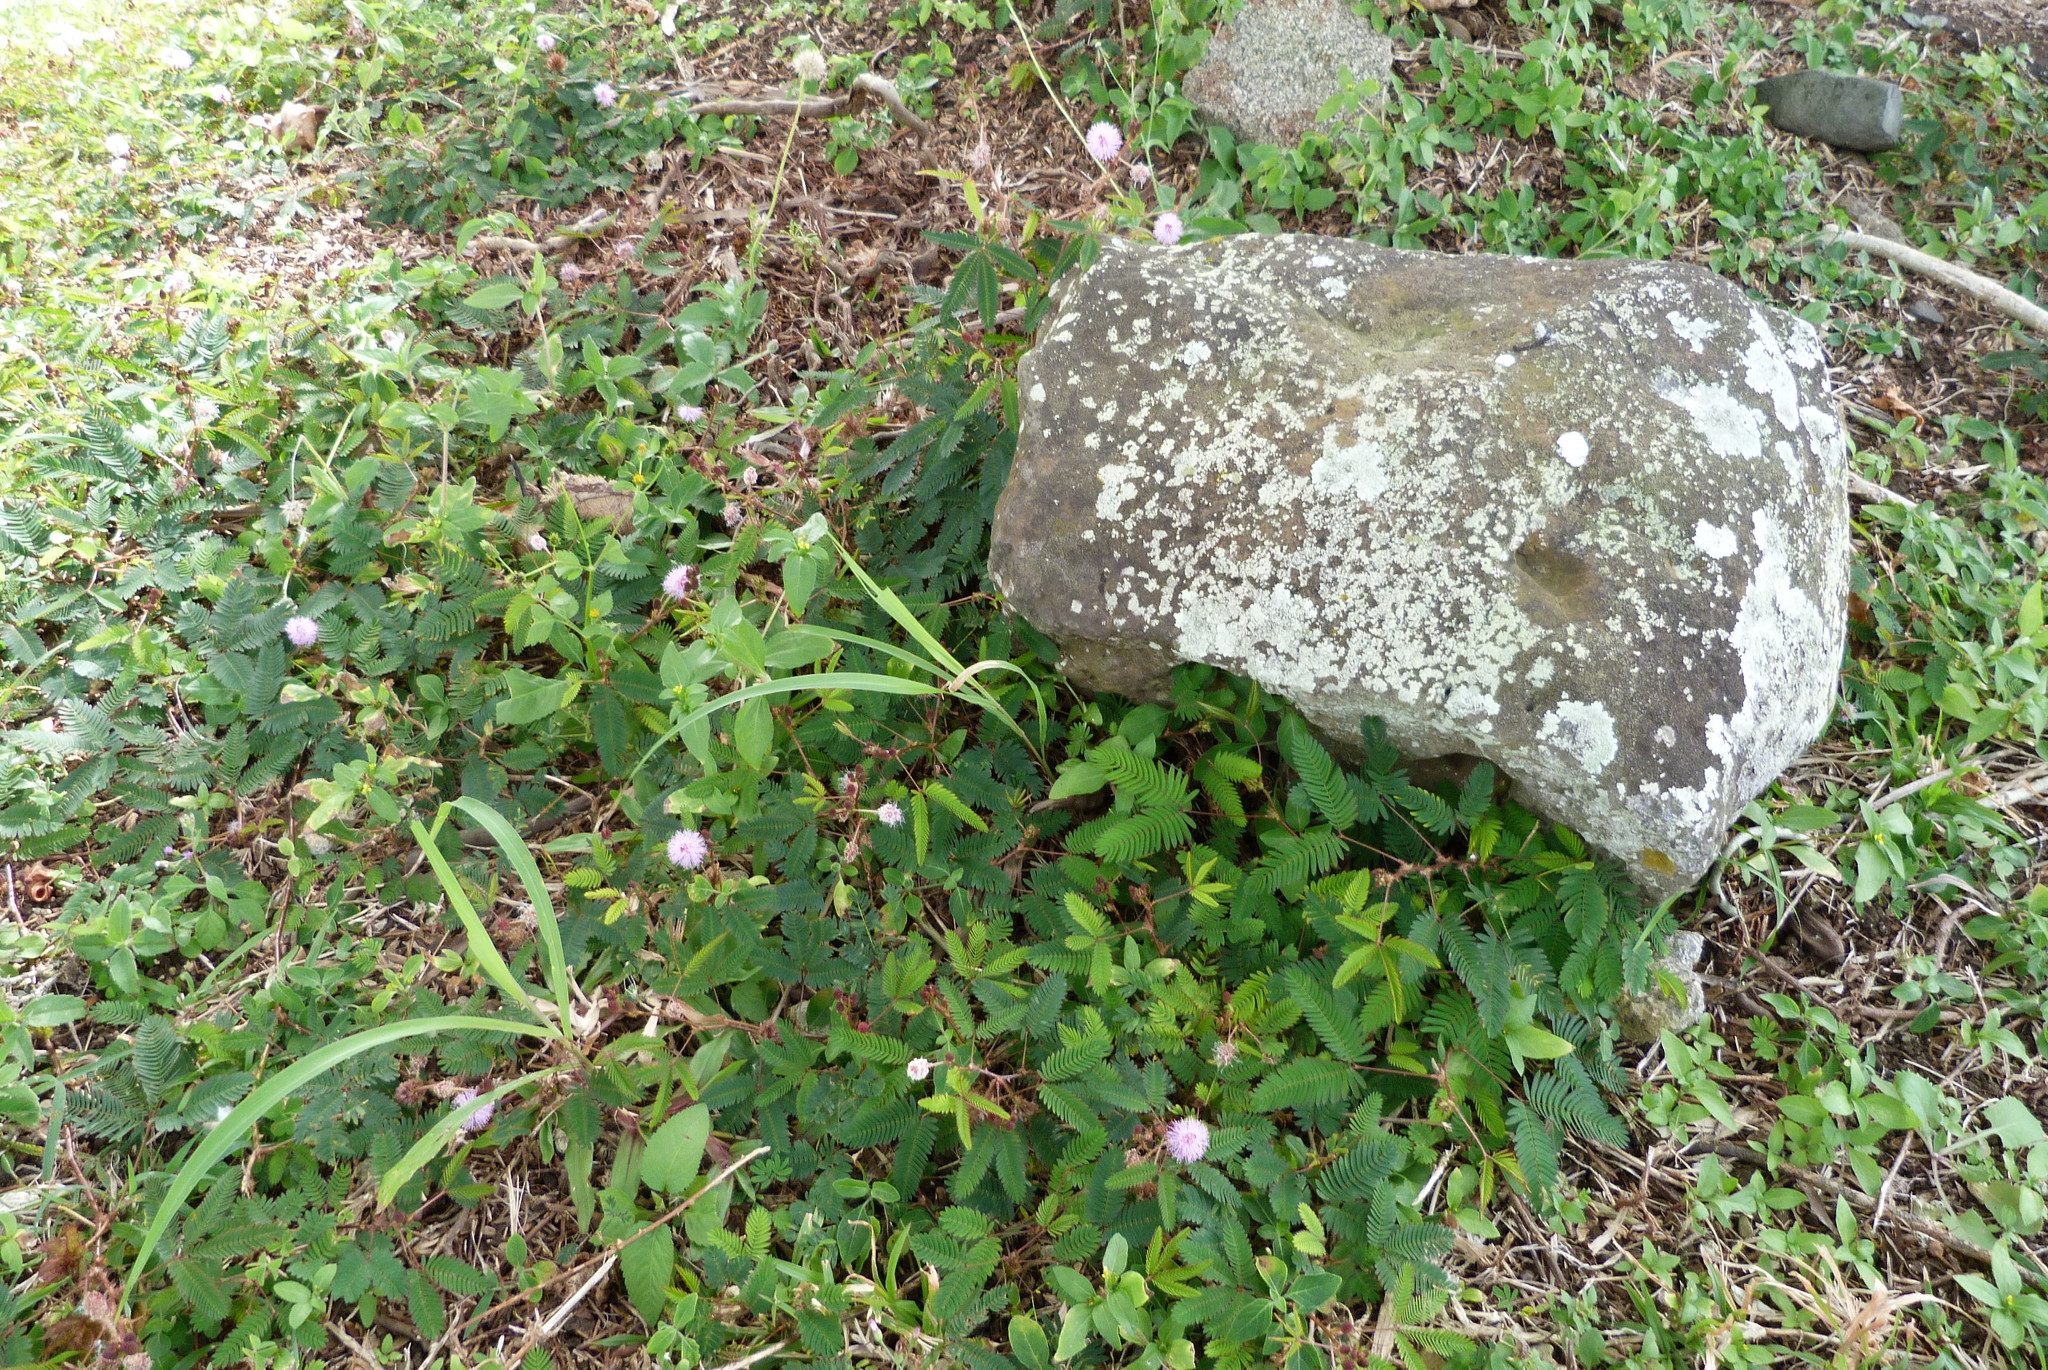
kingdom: Plantae
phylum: Tracheophyta
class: Magnoliopsida
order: Fabales
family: Fabaceae
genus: Mimosa
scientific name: Mimosa pudica
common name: Sensitive plant
